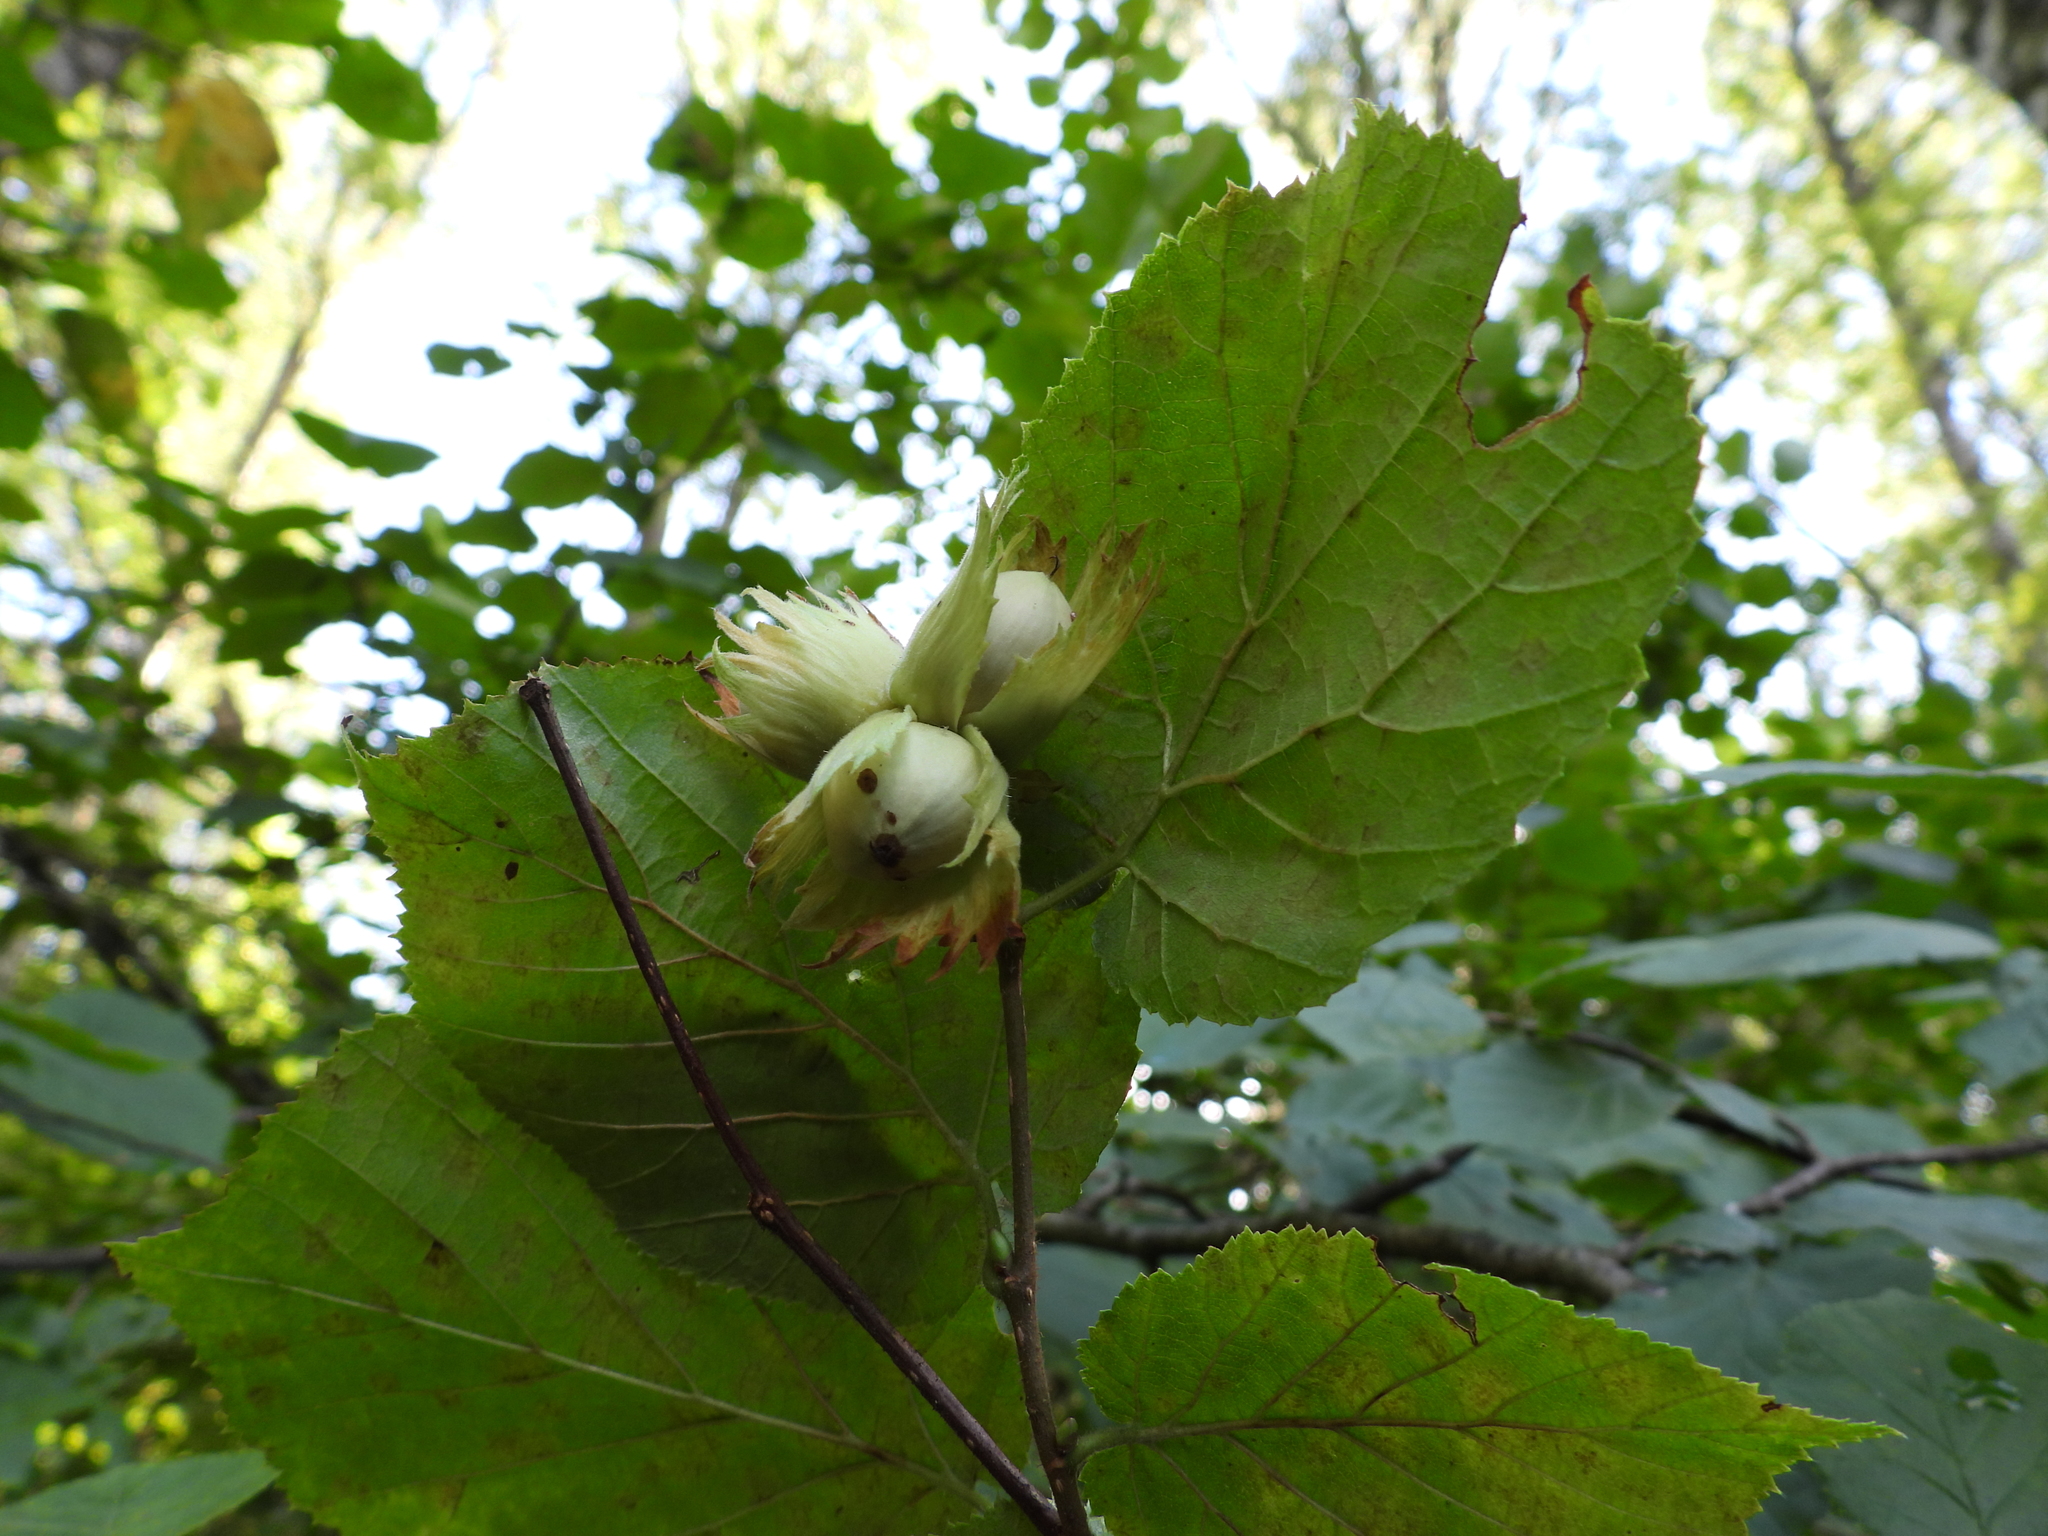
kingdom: Plantae
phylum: Tracheophyta
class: Magnoliopsida
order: Fagales
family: Betulaceae
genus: Corylus
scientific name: Corylus avellana
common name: European hazel
